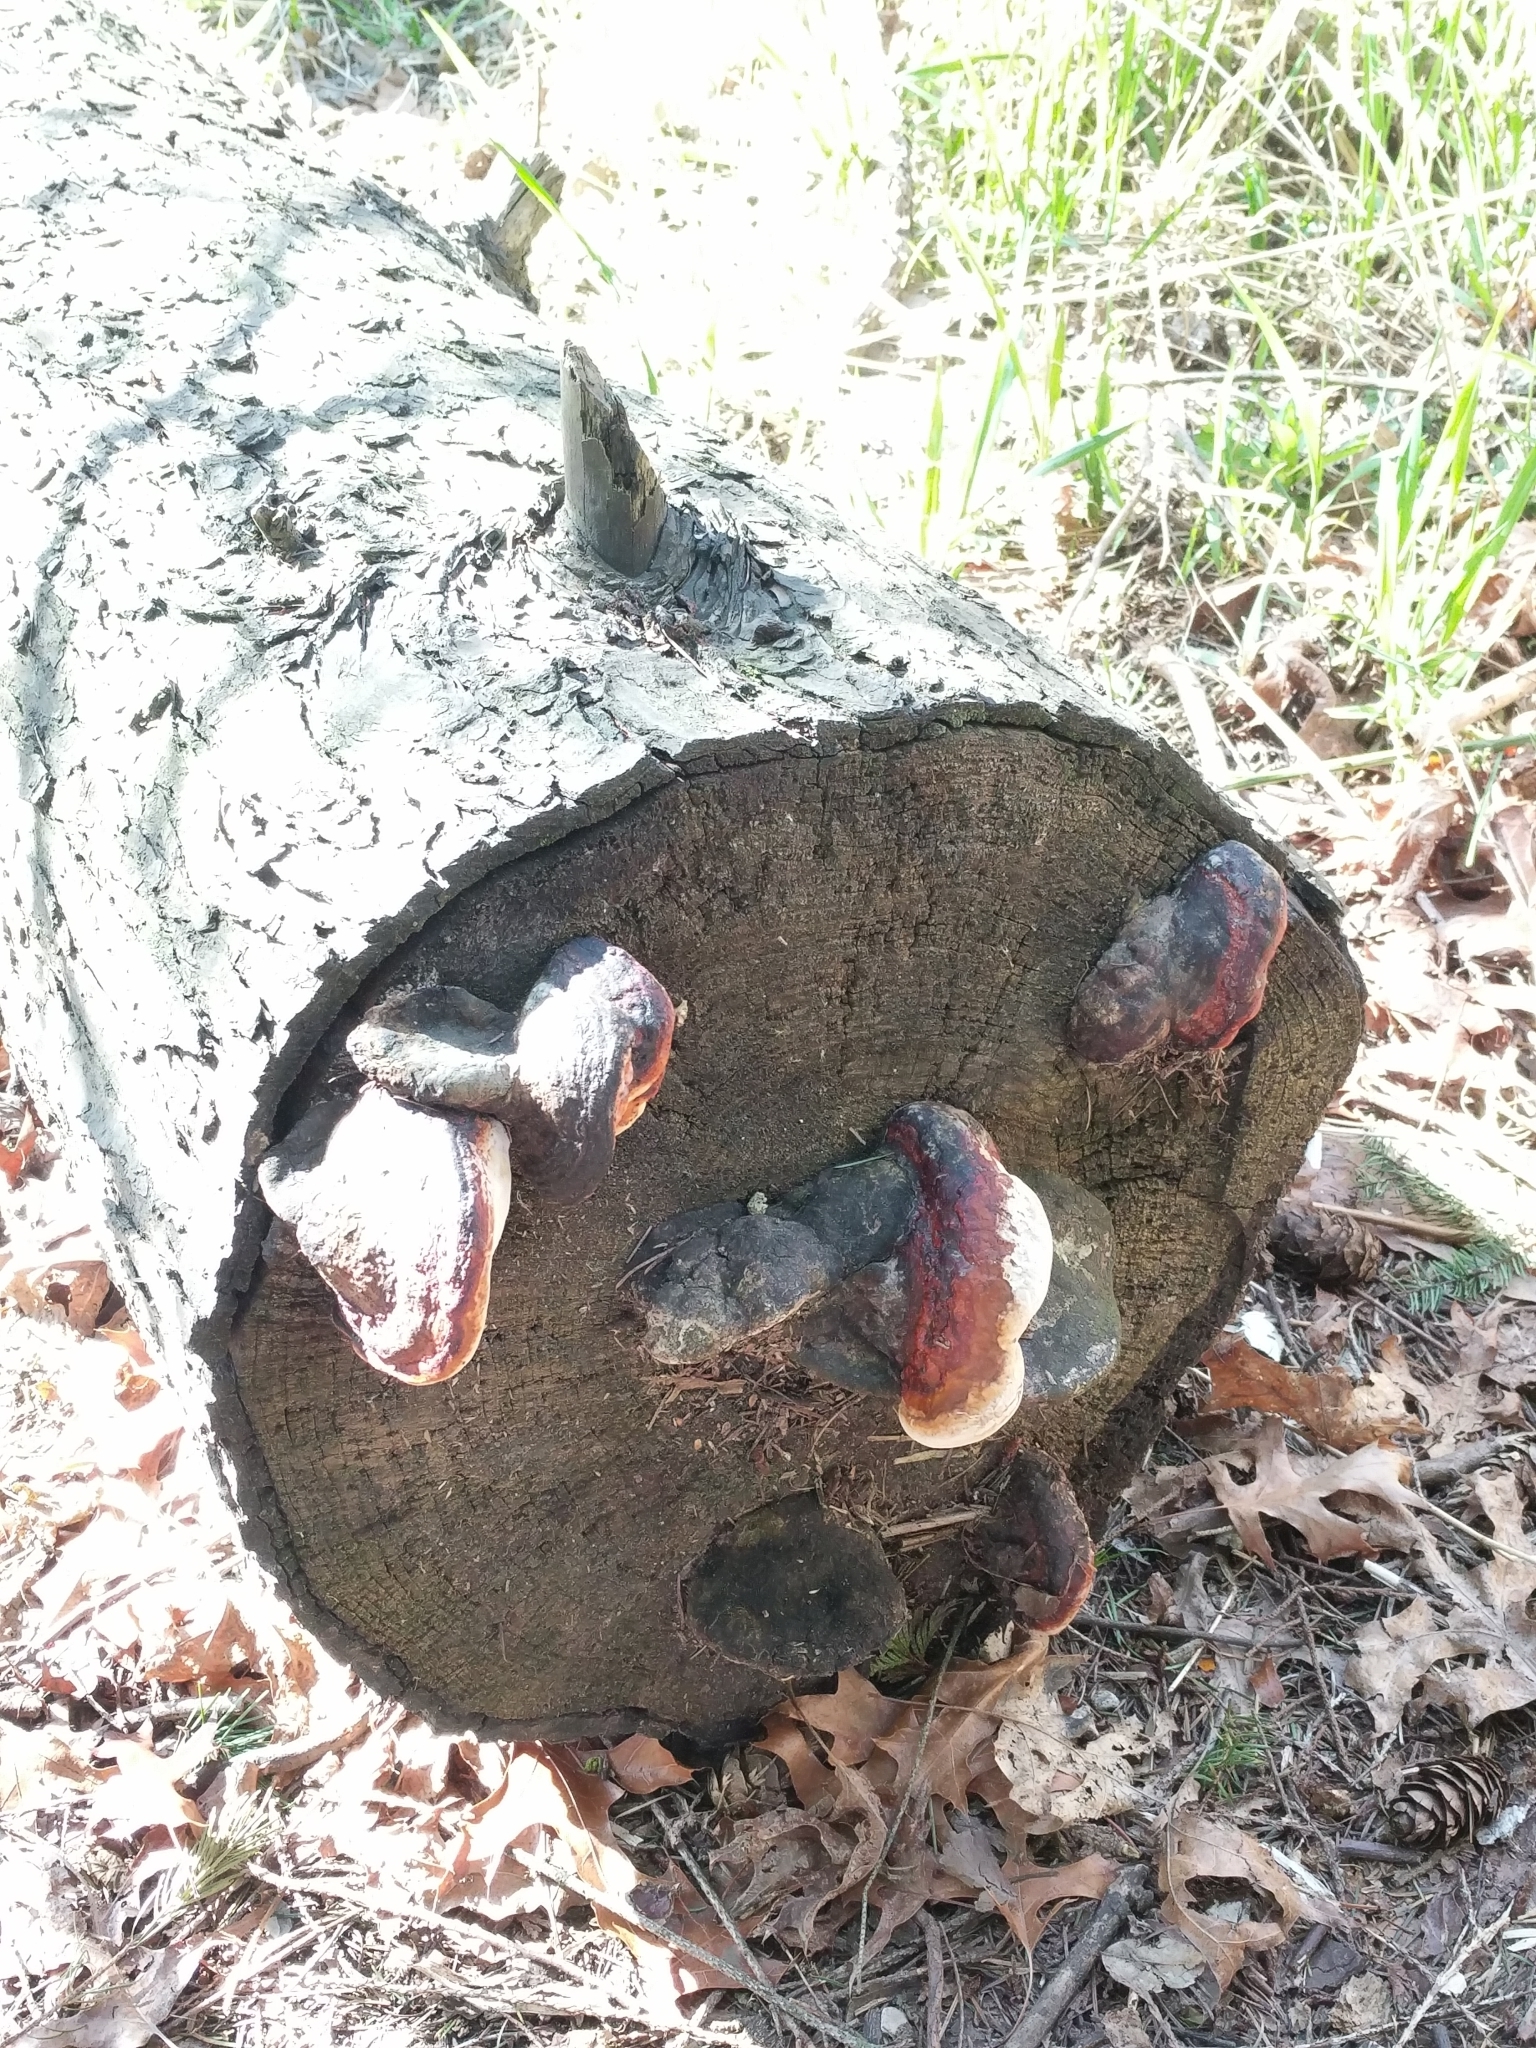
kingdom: Fungi
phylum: Basidiomycota
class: Agaricomycetes
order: Polyporales
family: Fomitopsidaceae
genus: Fomitopsis
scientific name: Fomitopsis mounceae
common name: Northern red belt
